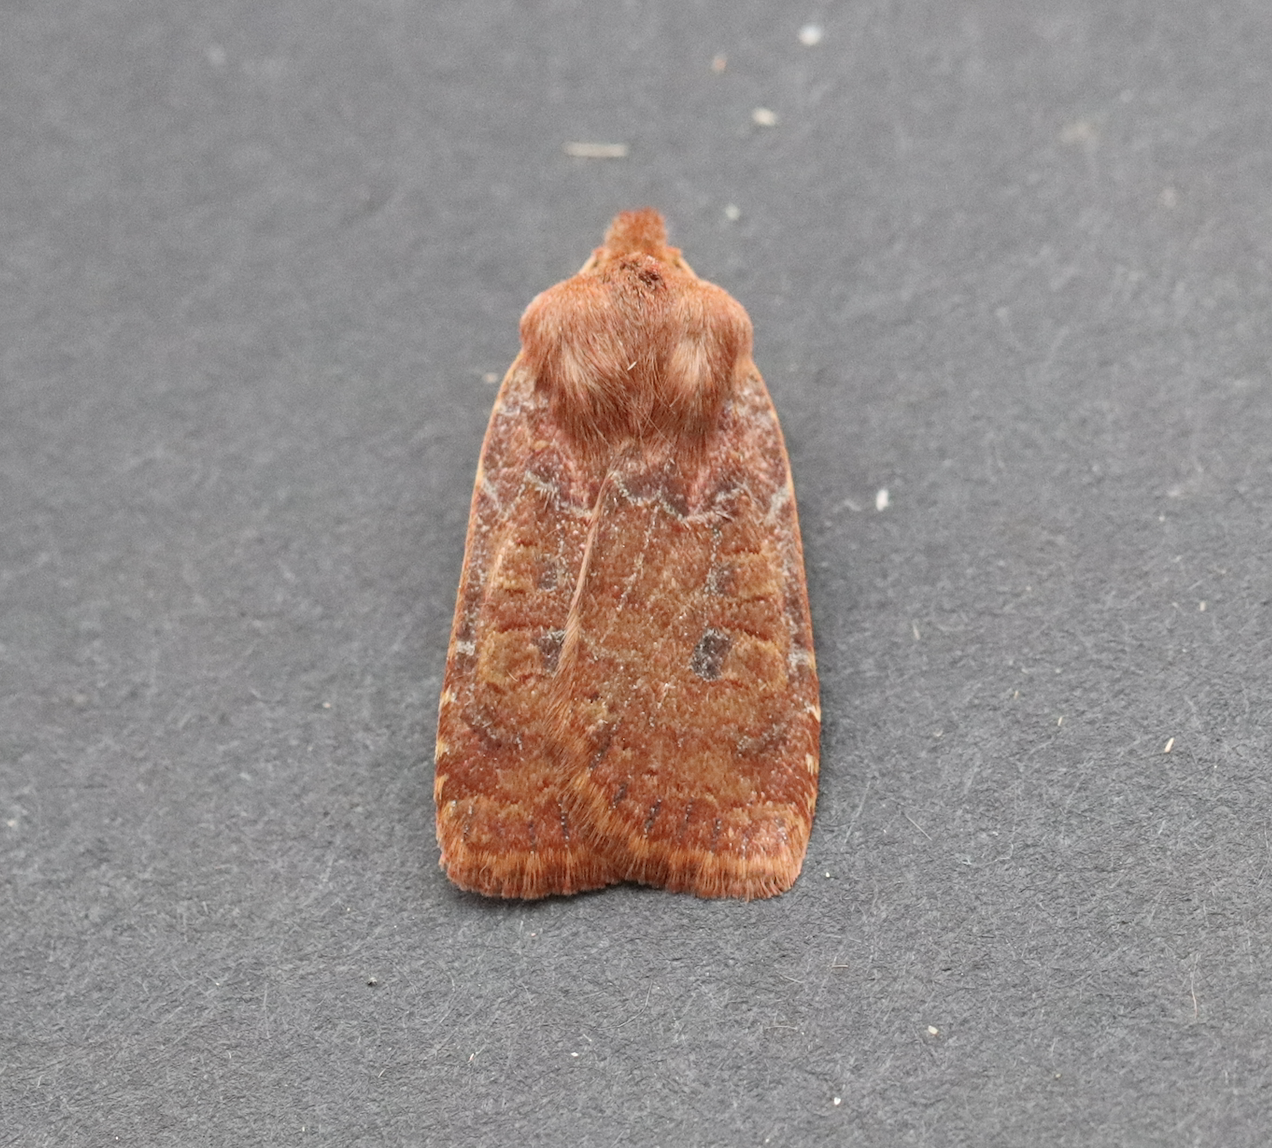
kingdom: Animalia
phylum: Arthropoda
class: Insecta
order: Lepidoptera
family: Noctuidae
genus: Conistra
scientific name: Conistra vaccinii
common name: Chestnut
